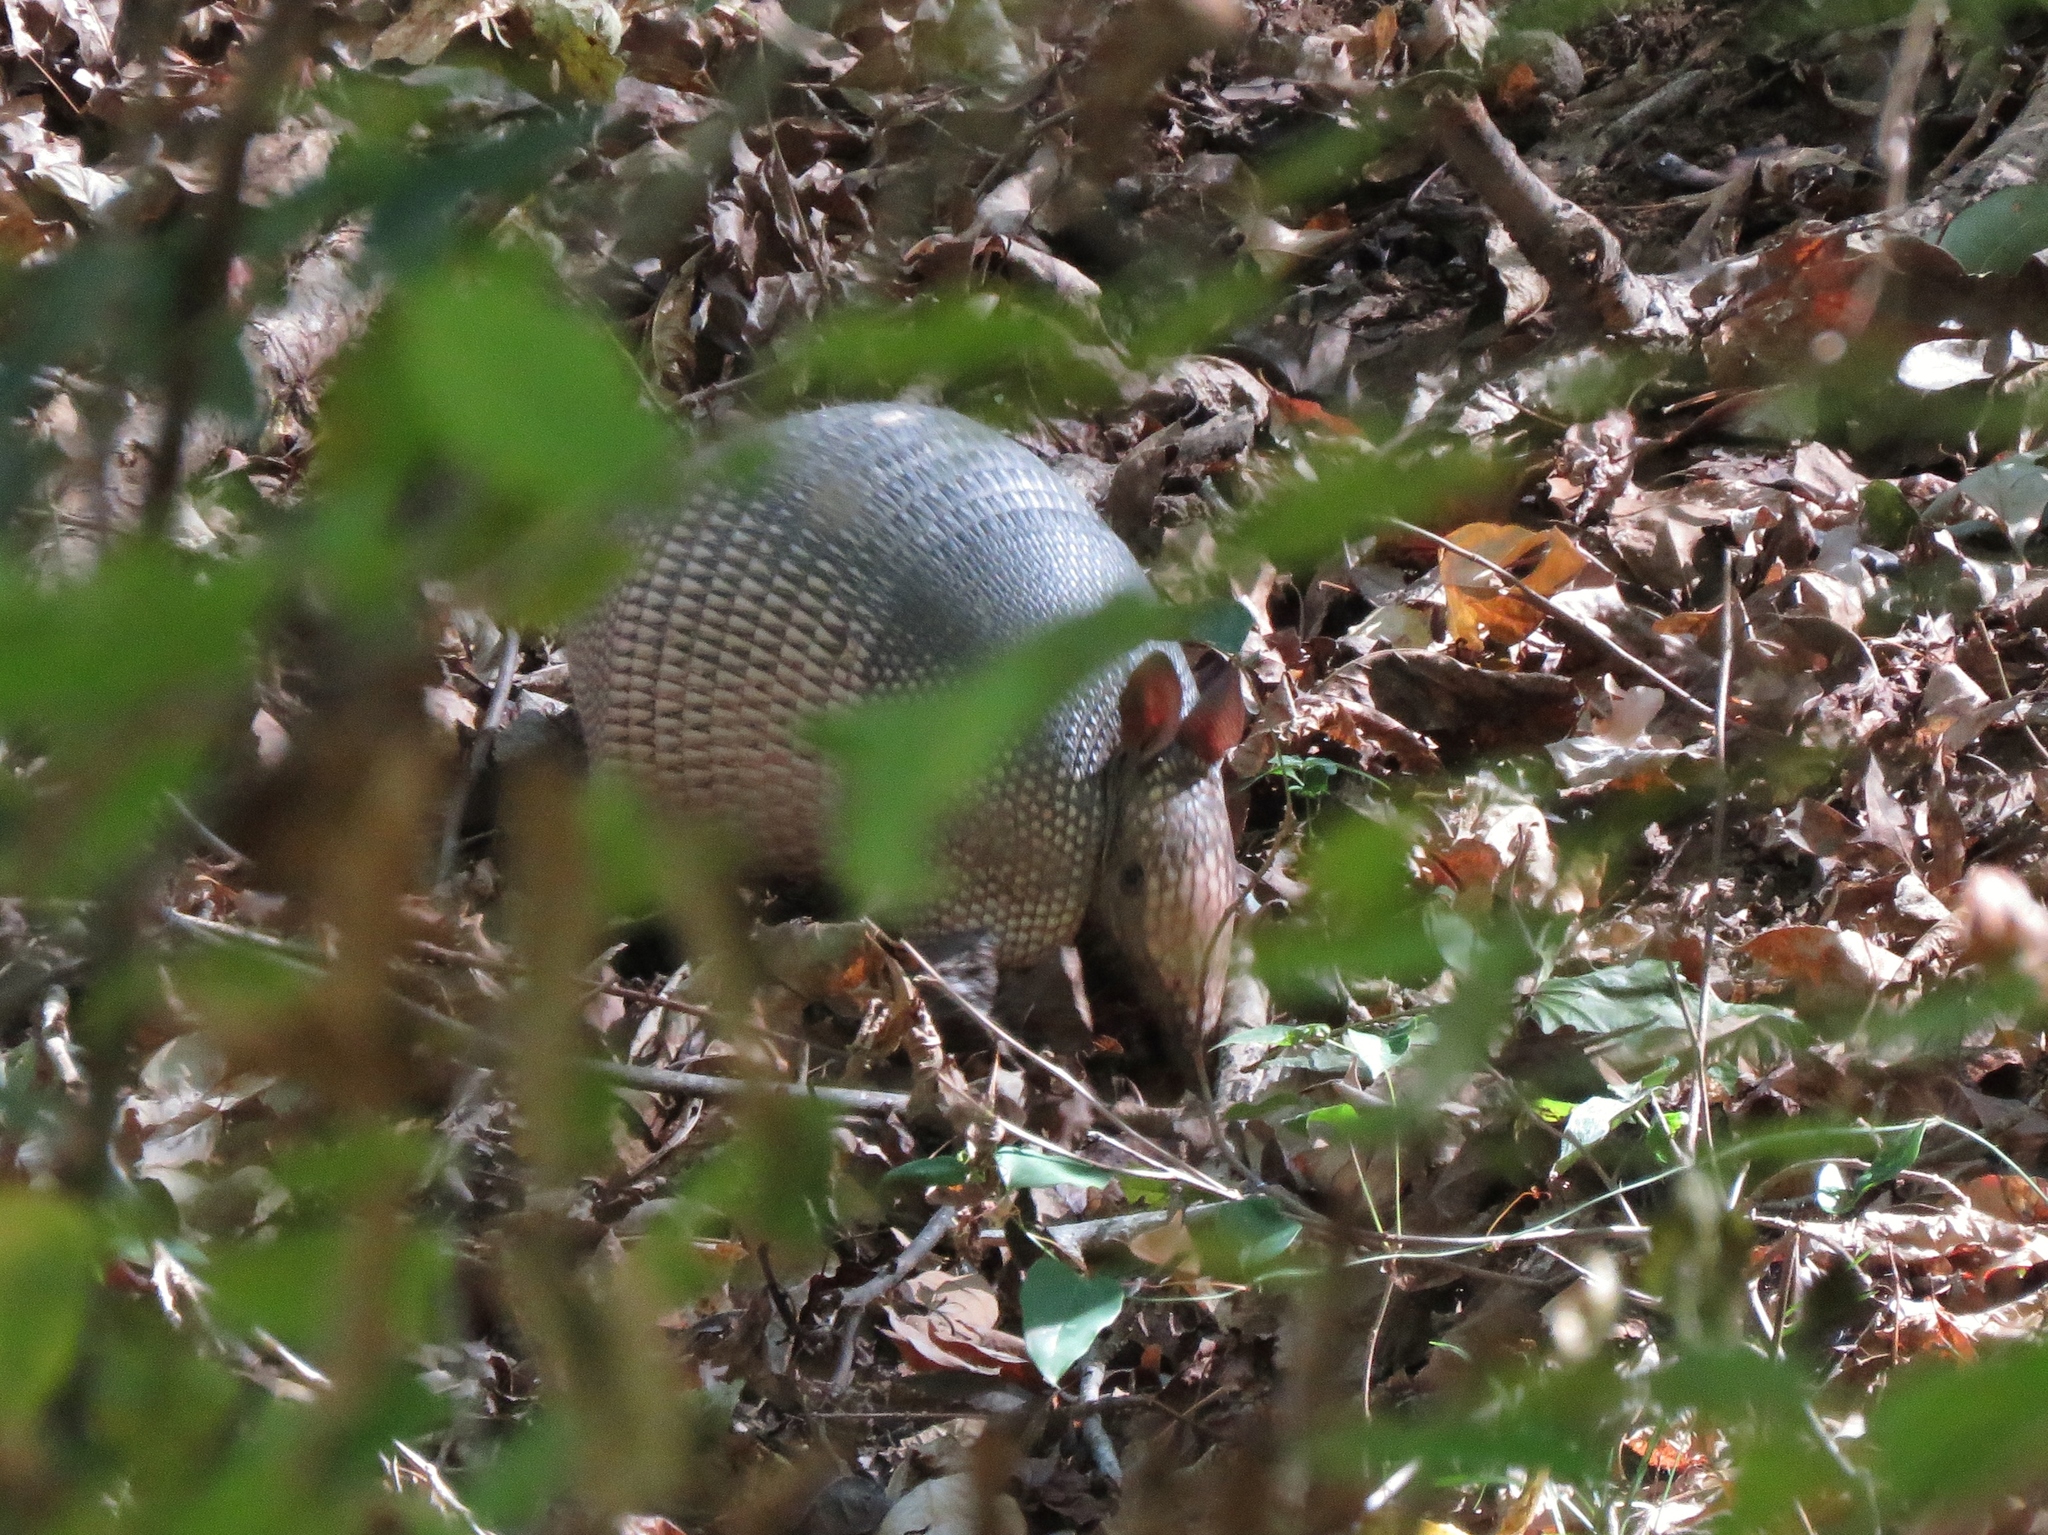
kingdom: Animalia
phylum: Chordata
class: Mammalia
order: Cingulata
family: Dasypodidae
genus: Dasypus
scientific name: Dasypus novemcinctus
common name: Nine-banded armadillo
